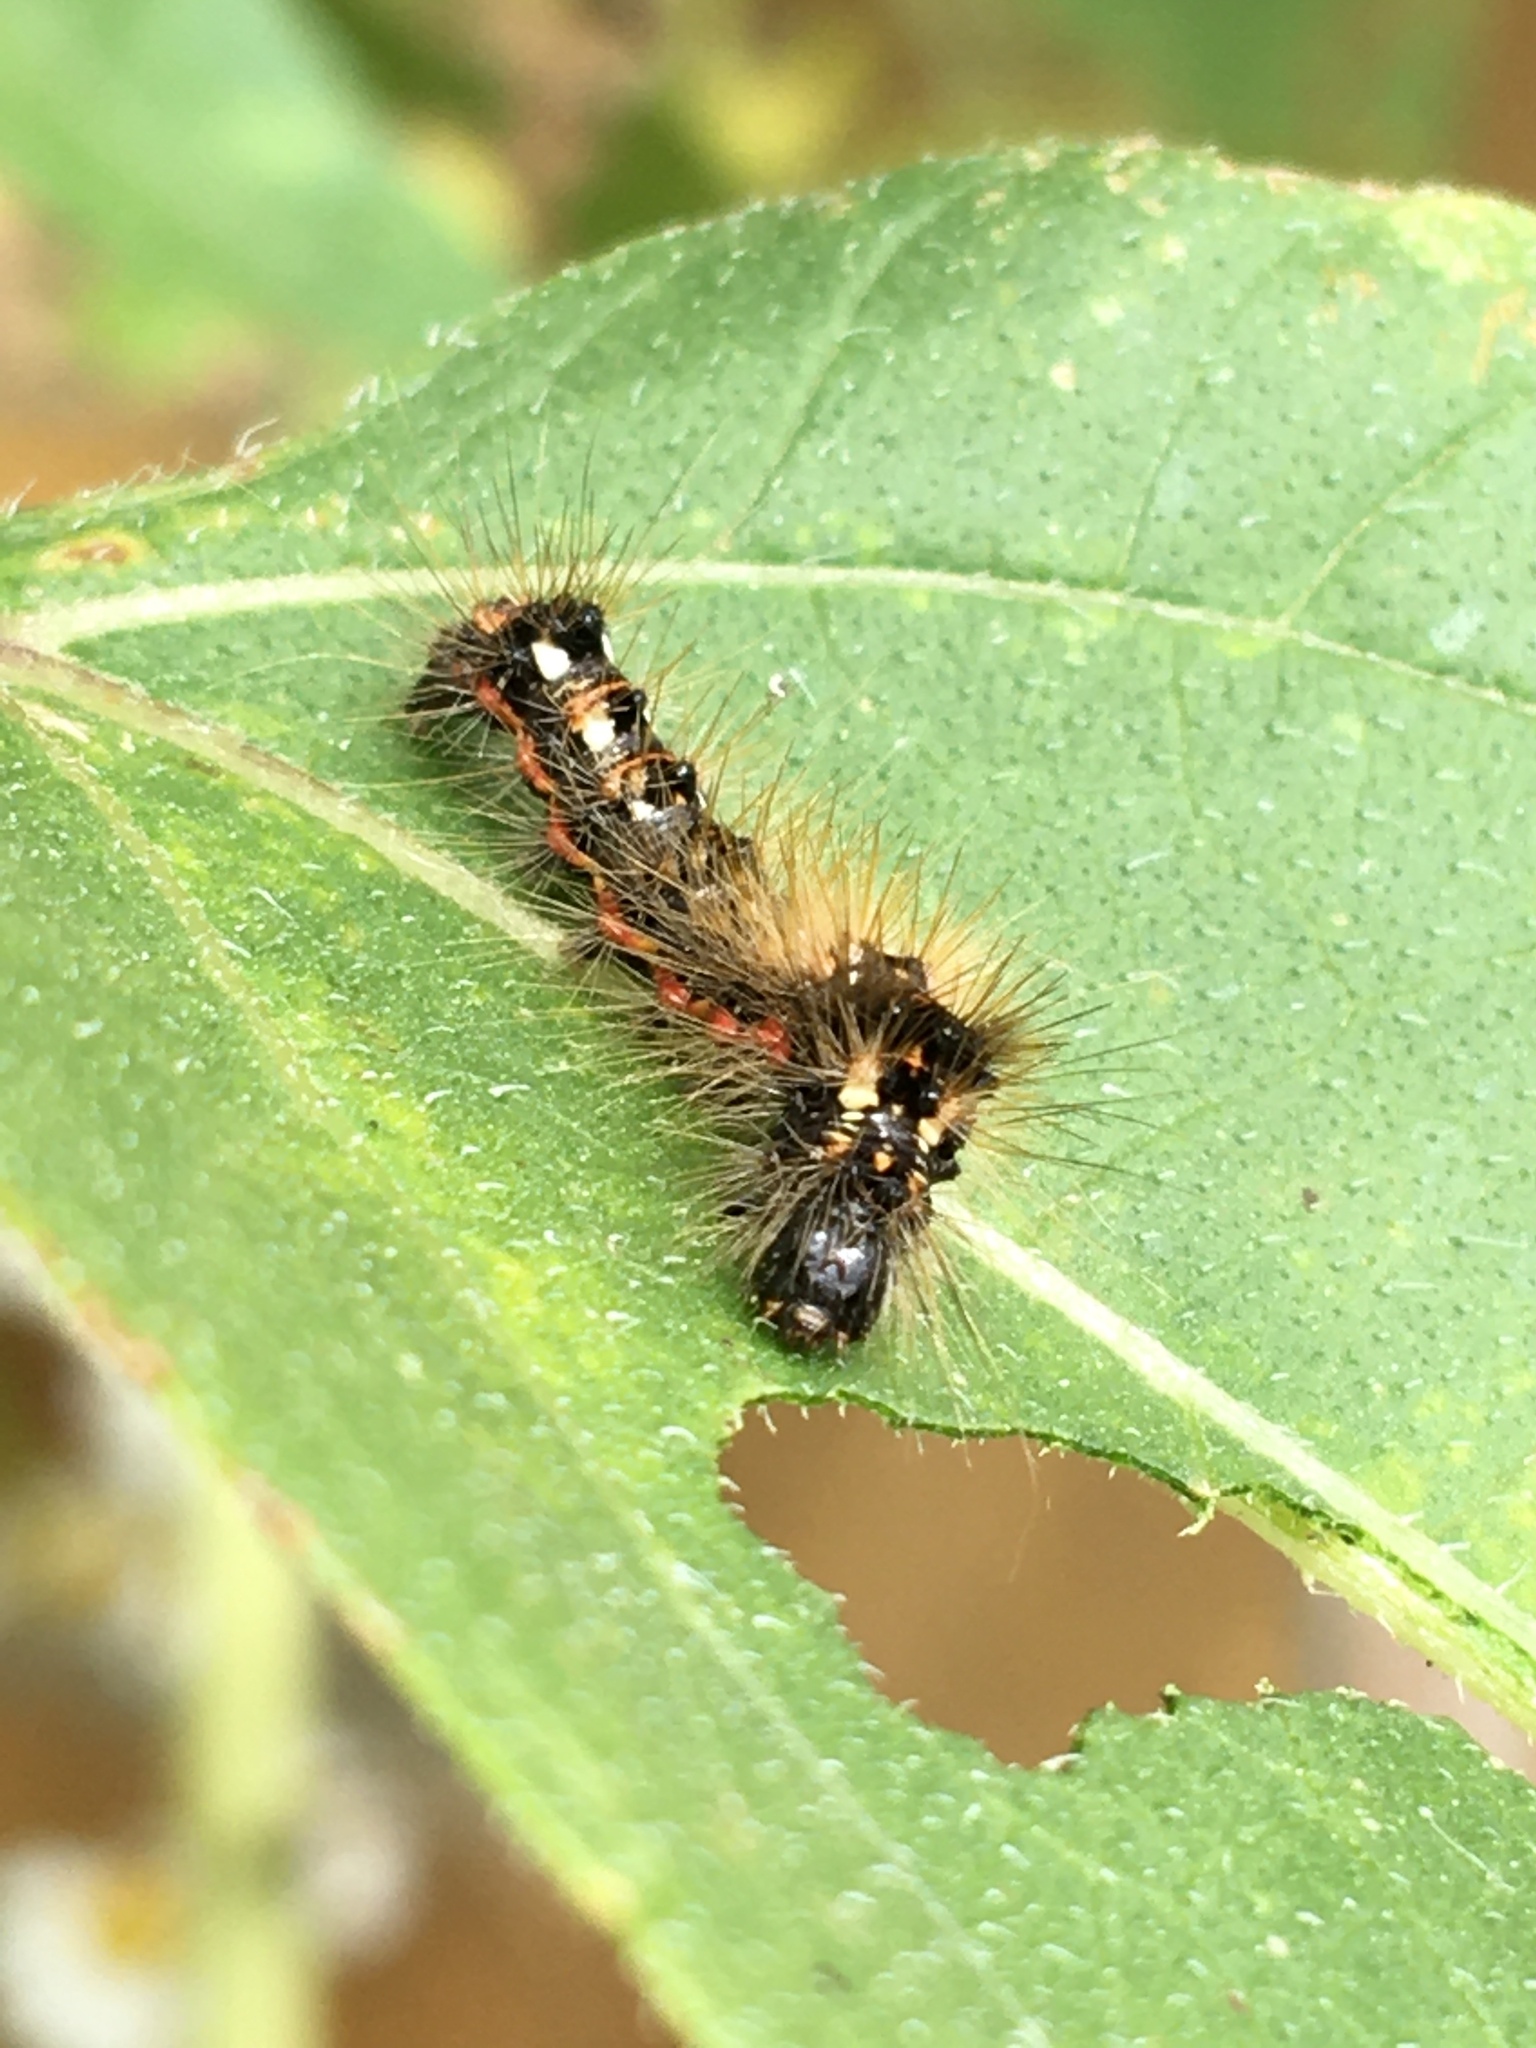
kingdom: Animalia
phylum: Arthropoda
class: Insecta
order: Lepidoptera
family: Noctuidae
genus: Acronicta
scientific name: Acronicta rumicis
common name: Knot grass
